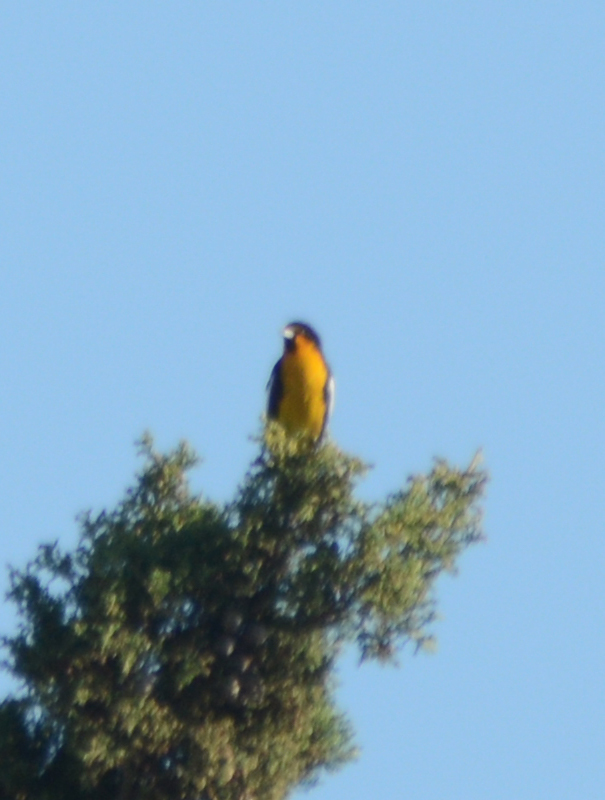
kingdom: Animalia
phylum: Chordata
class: Aves
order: Passeriformes
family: Icteridae
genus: Icterus
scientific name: Icterus abeillei
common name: Black-backed oriole
